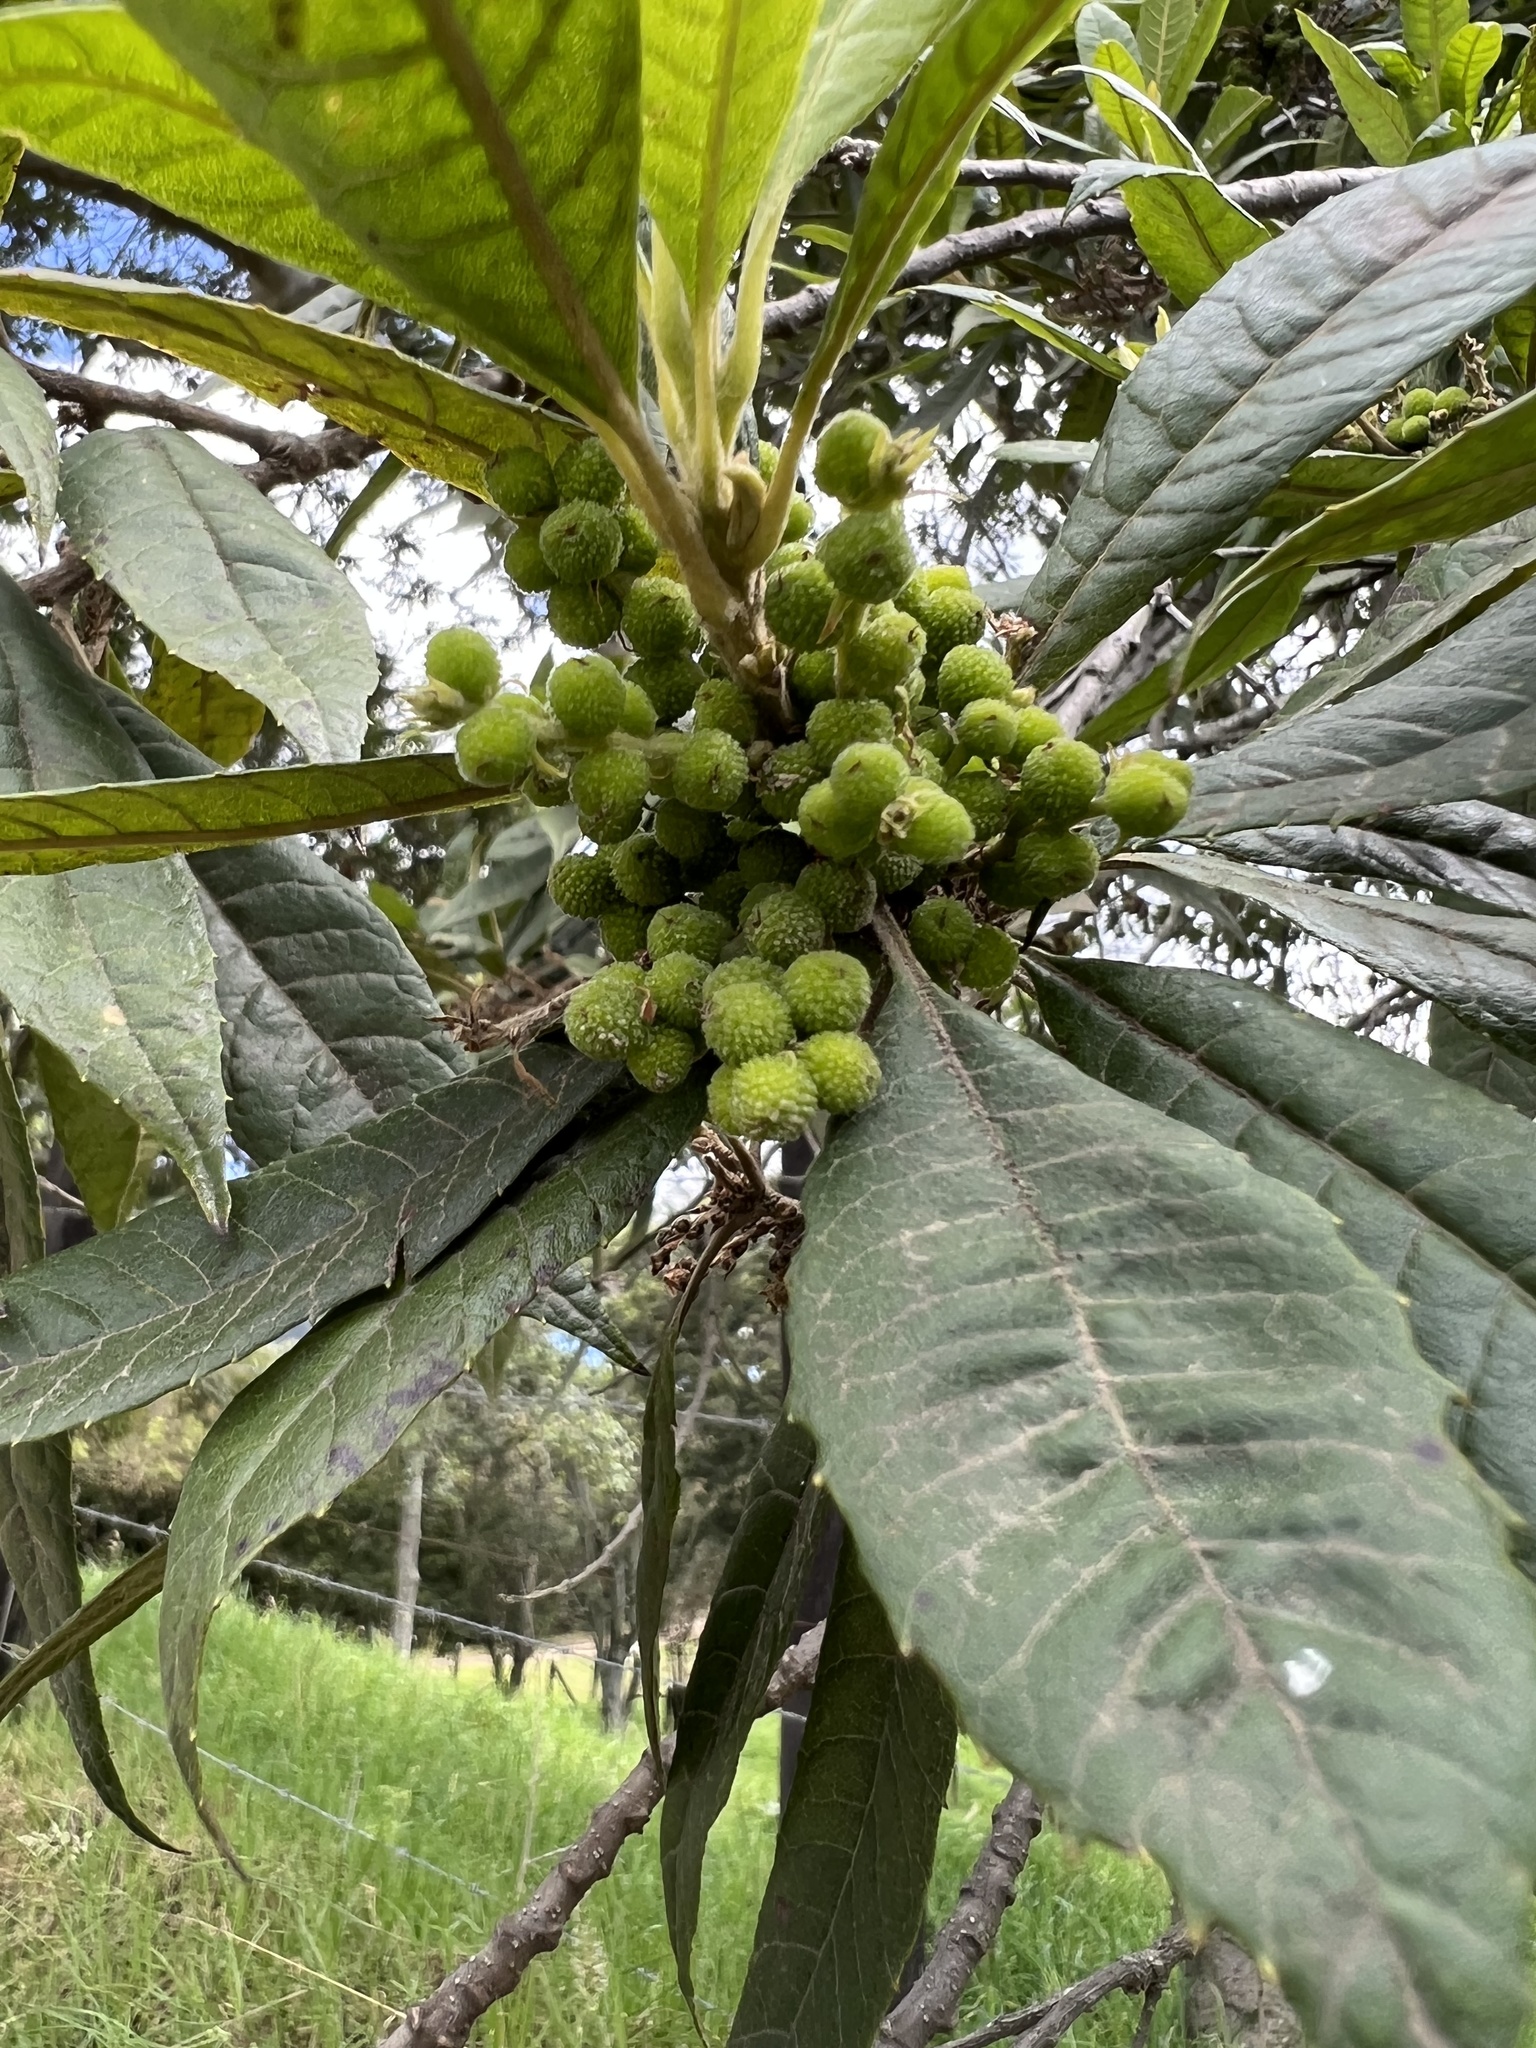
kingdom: Plantae
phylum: Tracheophyta
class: Magnoliopsida
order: Fagales
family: Myricaceae
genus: Morella
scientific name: Morella pubescens
